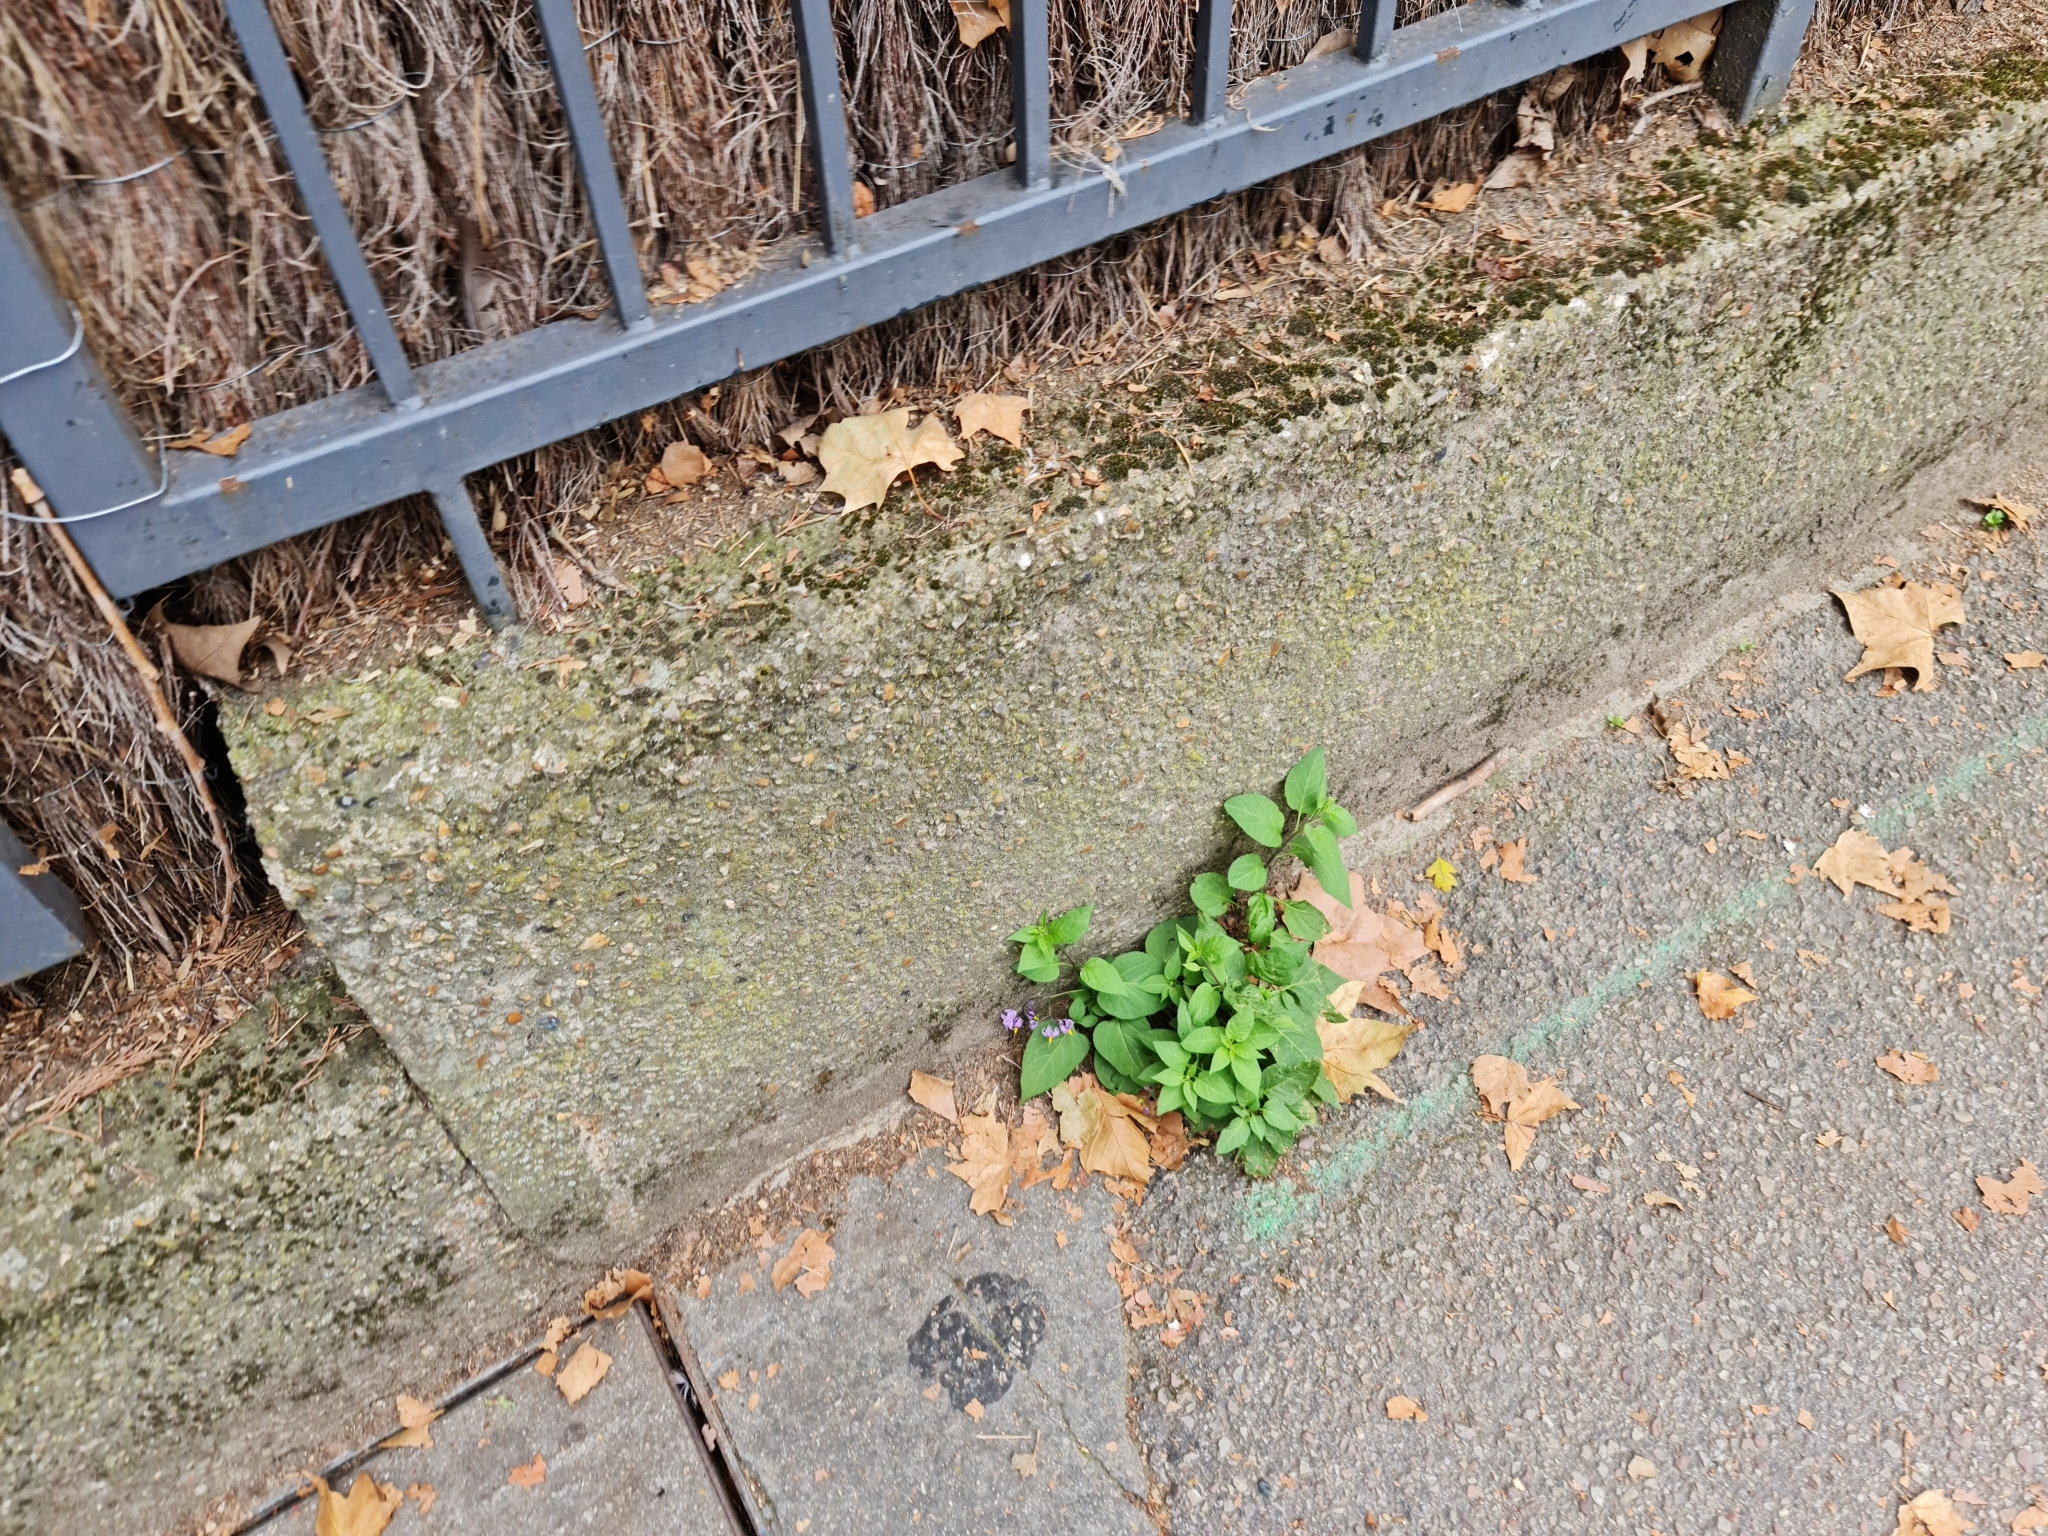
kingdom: Plantae
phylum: Tracheophyta
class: Magnoliopsida
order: Solanales
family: Solanaceae
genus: Solanum
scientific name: Solanum dulcamara
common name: Climbing nightshade
